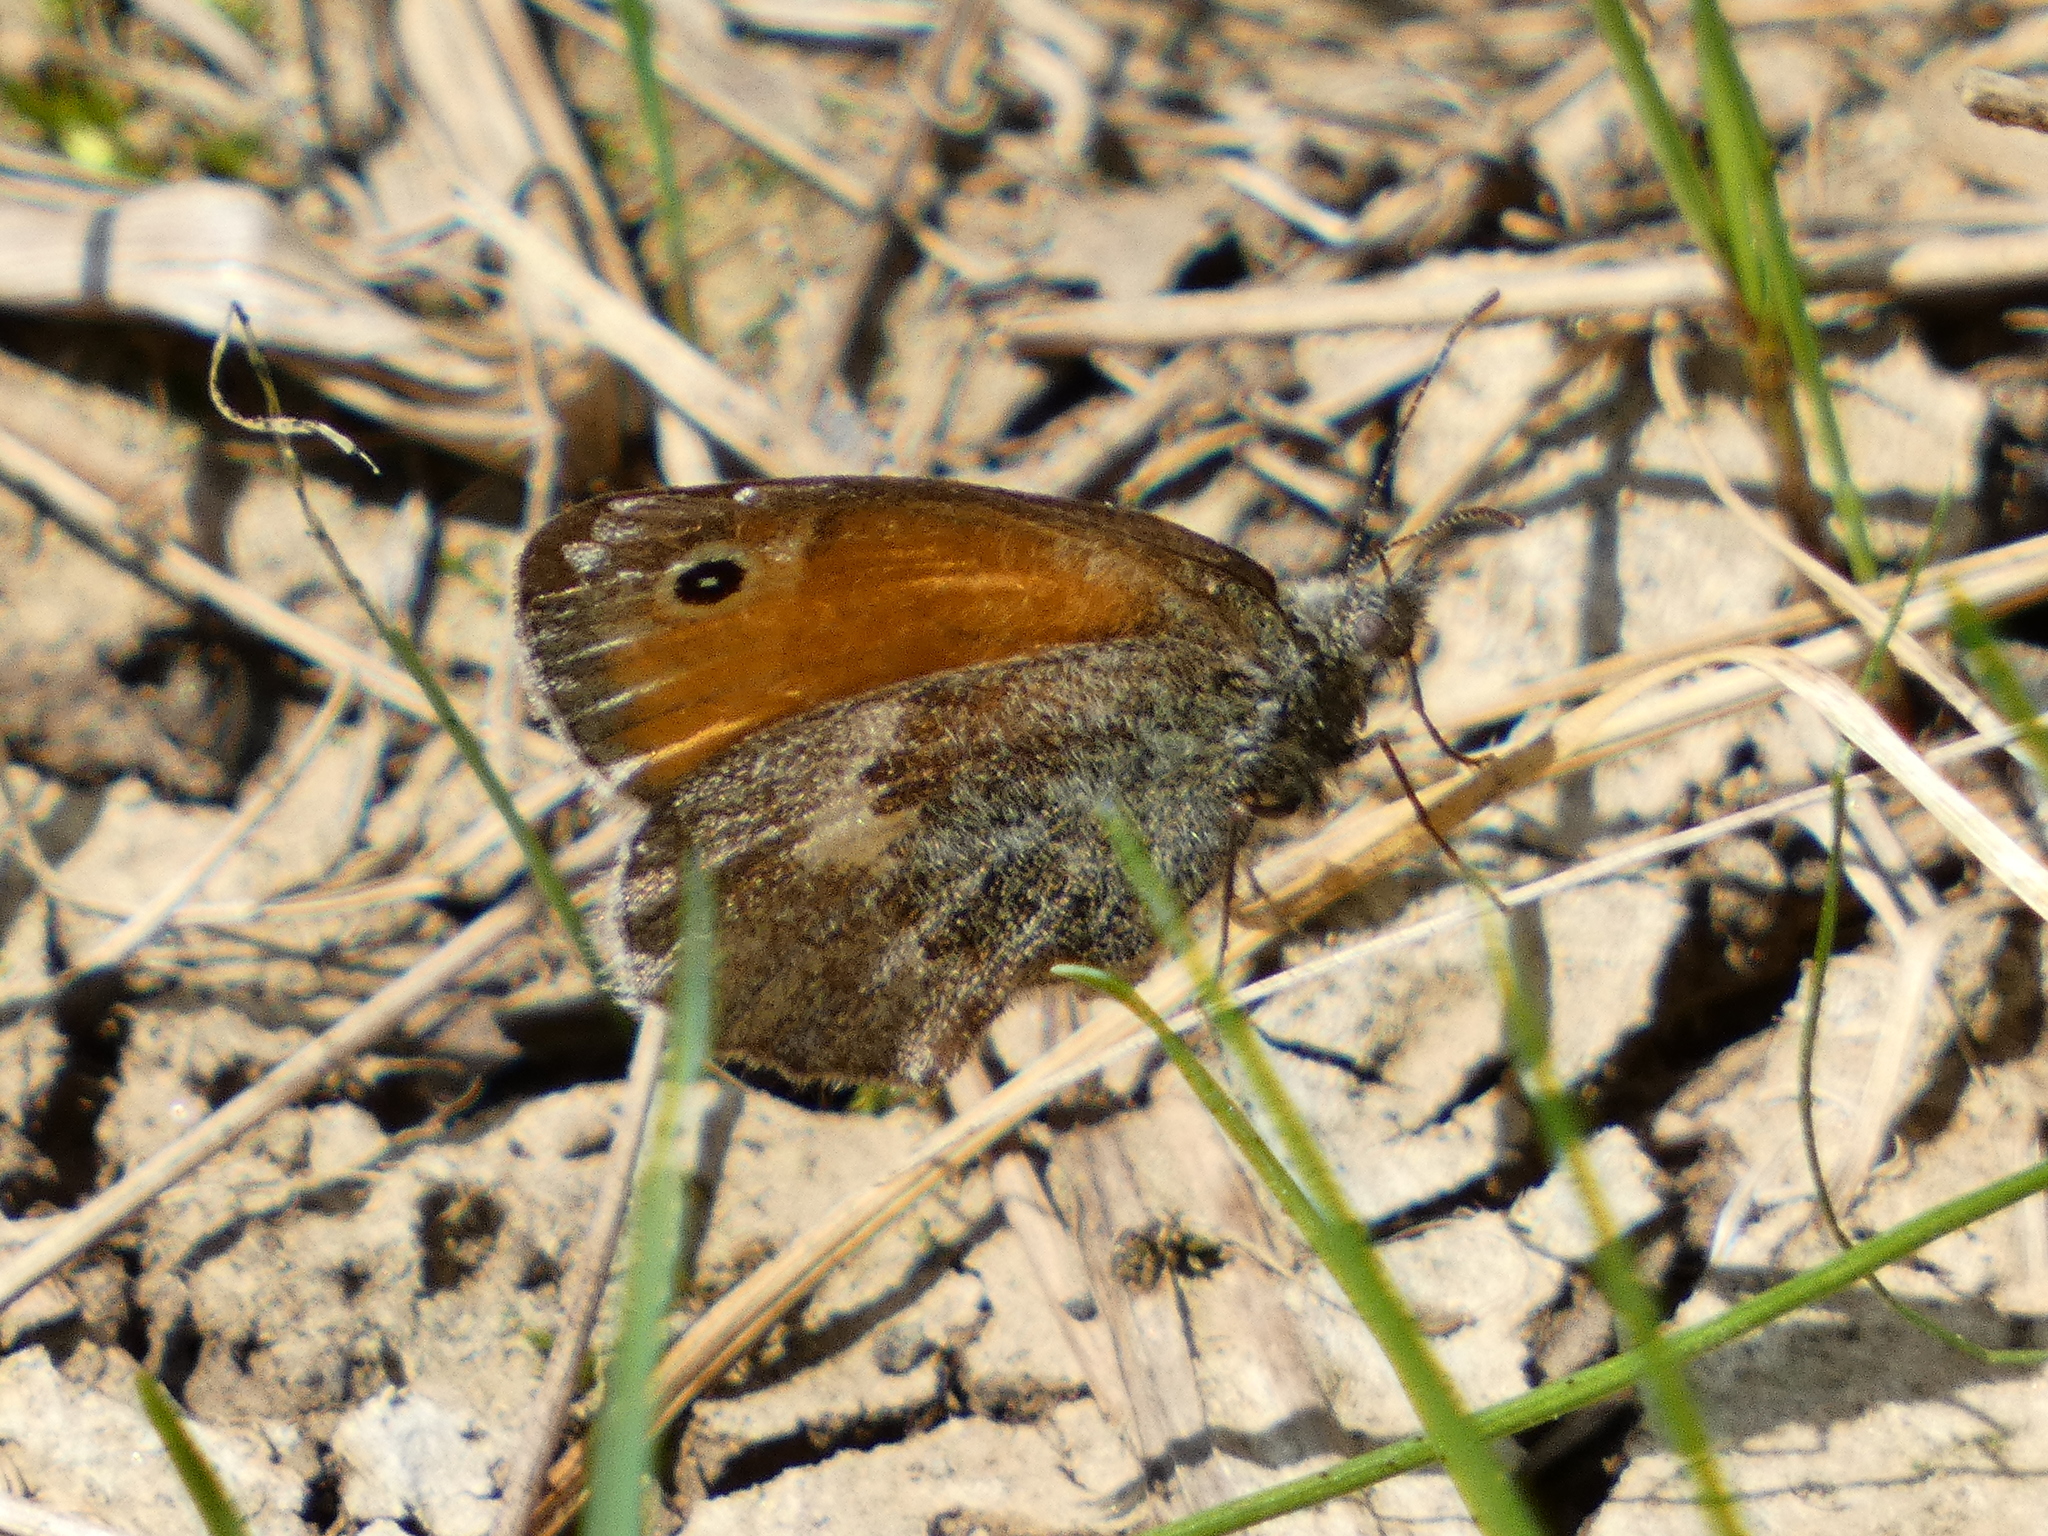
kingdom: Animalia
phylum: Arthropoda
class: Insecta
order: Lepidoptera
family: Nymphalidae
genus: Coenonympha
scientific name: Coenonympha pamphilus
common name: Small heath
